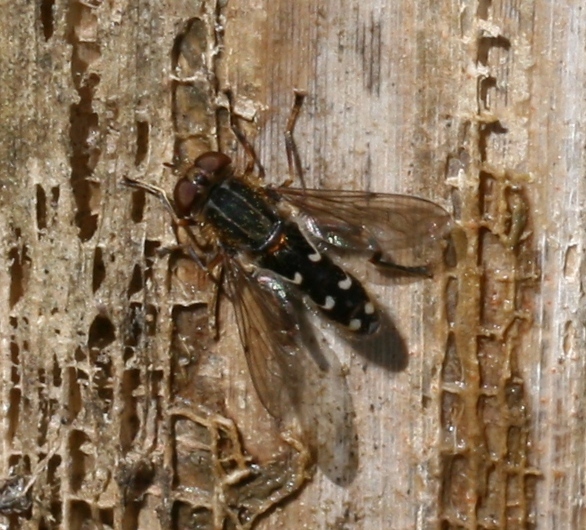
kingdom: Animalia
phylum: Arthropoda
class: Insecta
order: Diptera
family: Syrphidae
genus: Anasimyia
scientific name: Anasimyia contracta
